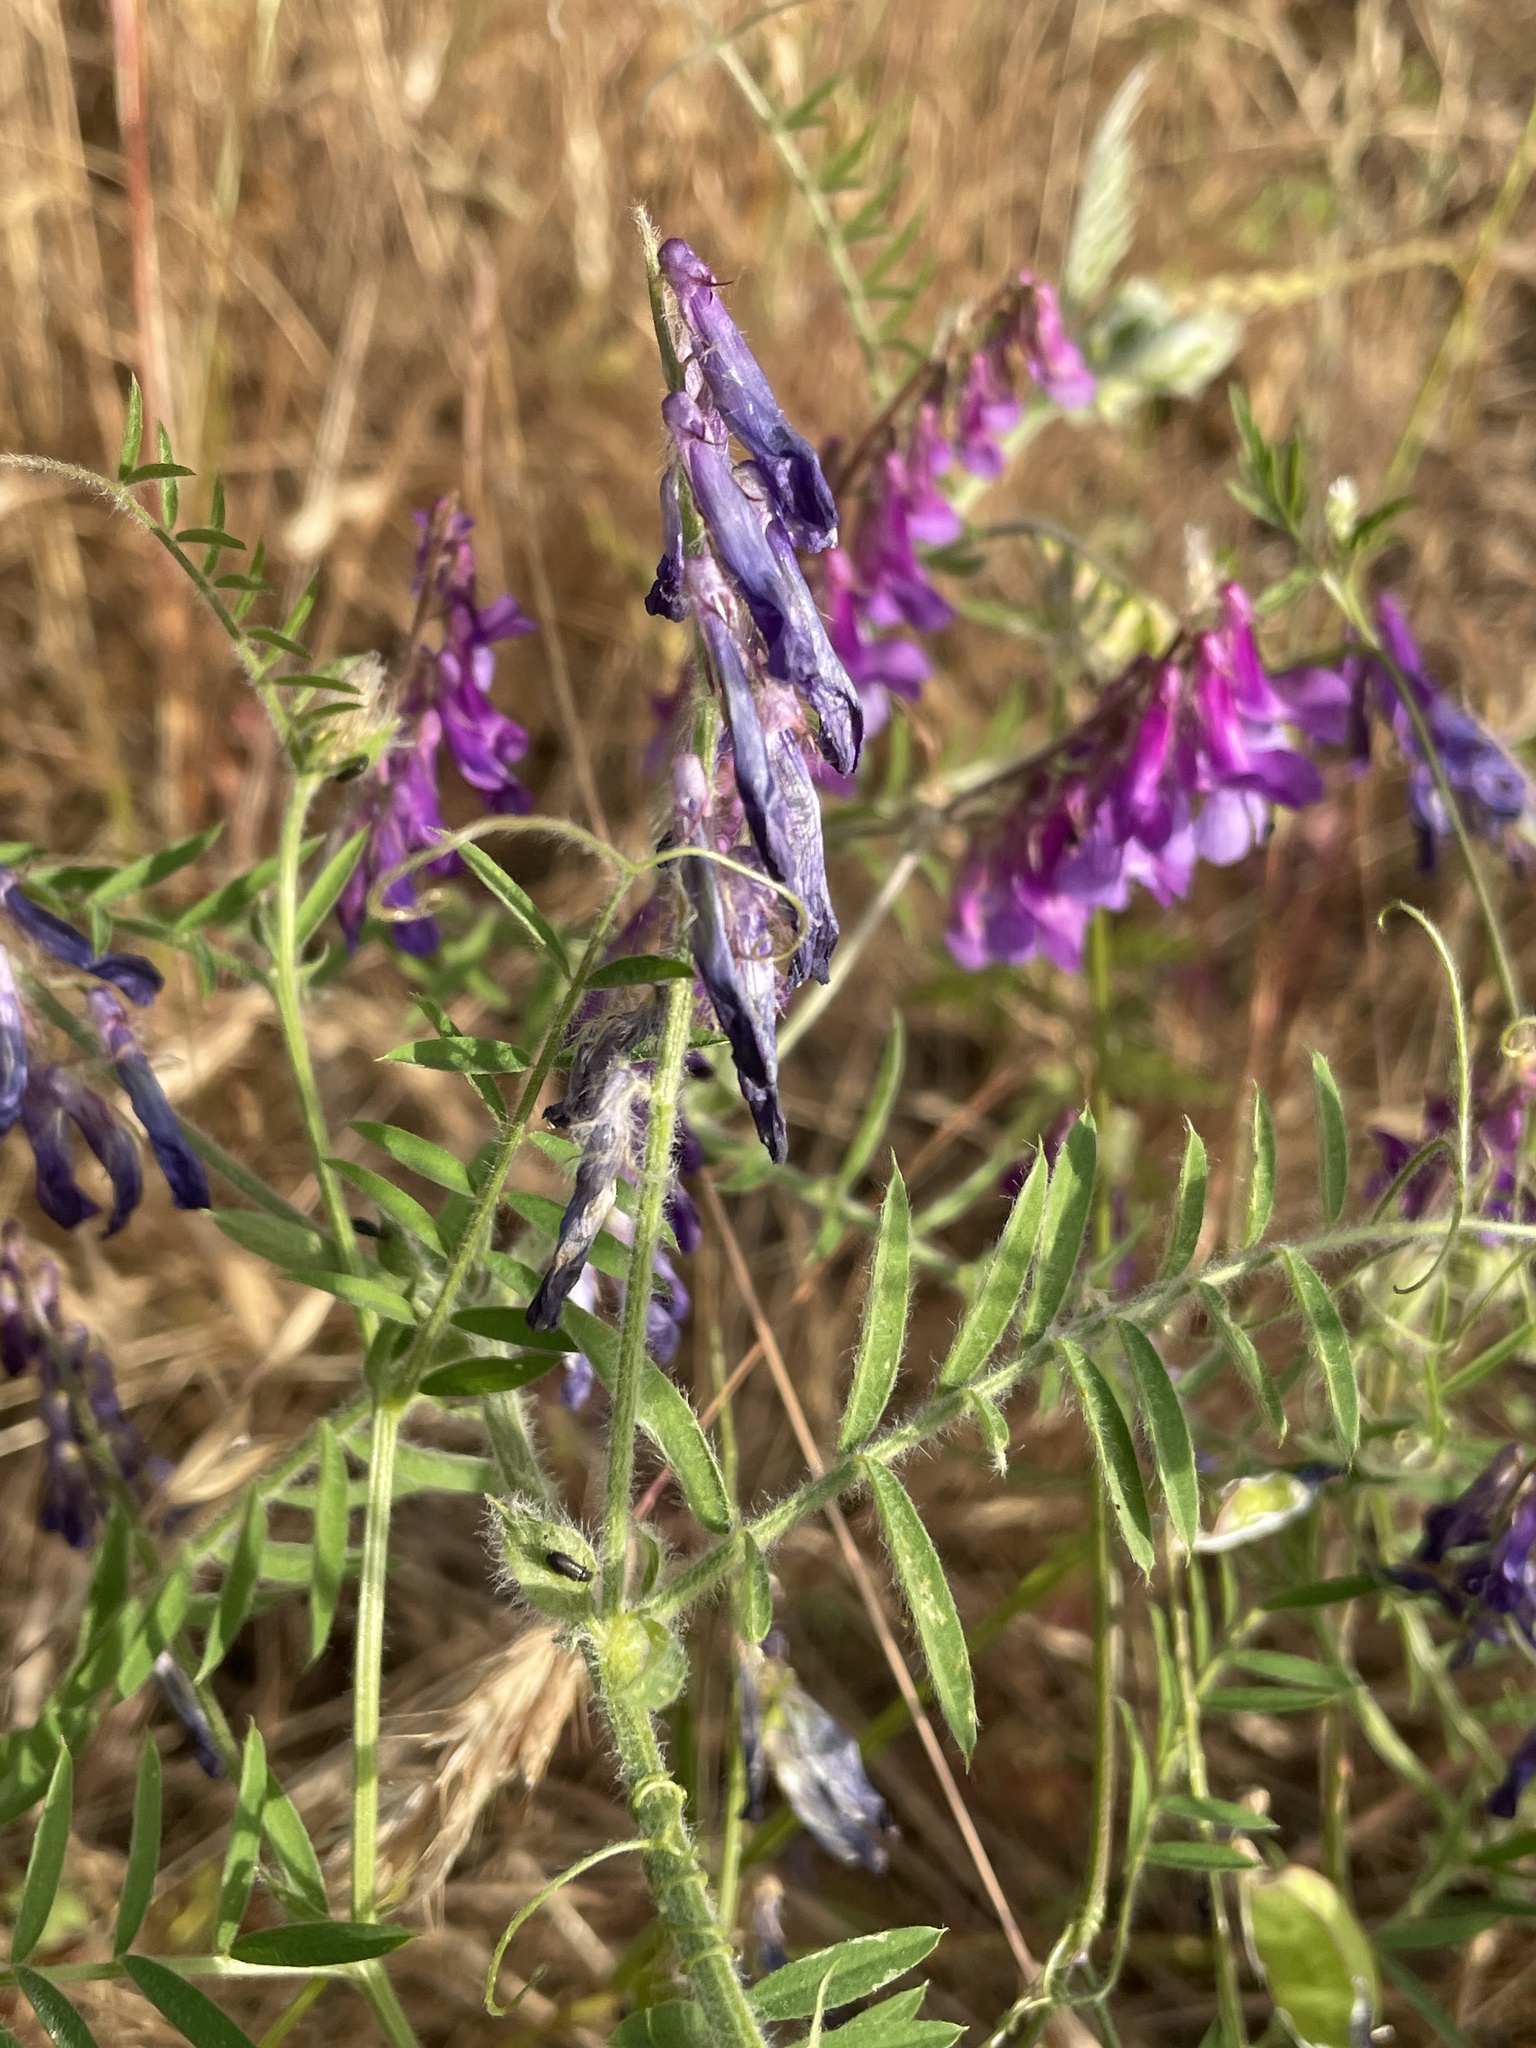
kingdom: Plantae
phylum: Tracheophyta
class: Magnoliopsida
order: Fabales
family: Fabaceae
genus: Vicia
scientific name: Vicia villosa
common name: Fodder vetch
